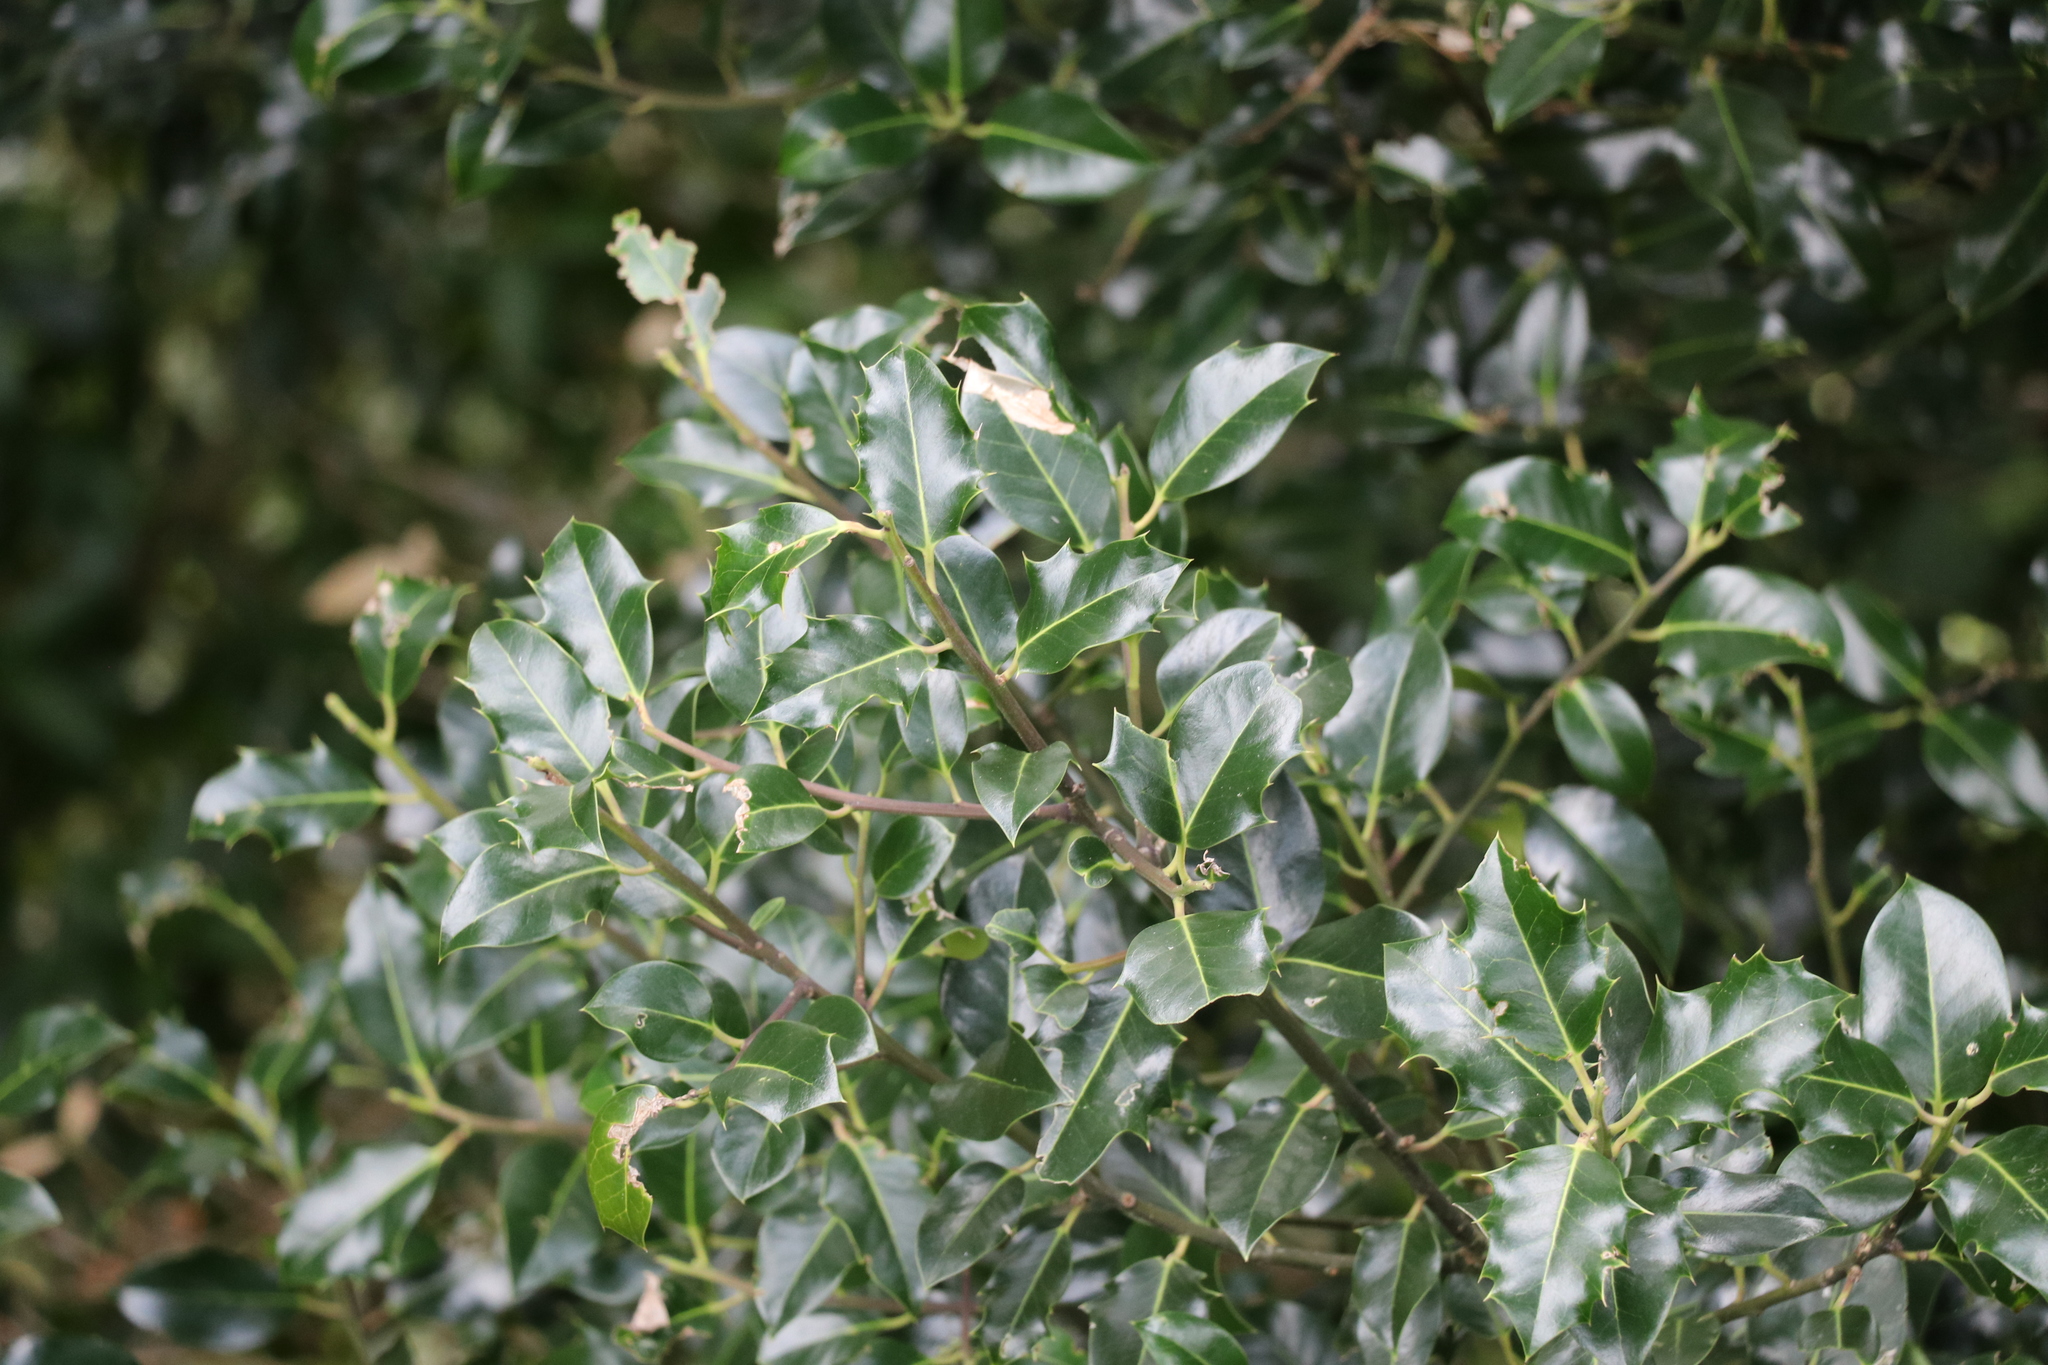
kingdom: Plantae
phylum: Tracheophyta
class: Magnoliopsida
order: Aquifoliales
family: Aquifoliaceae
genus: Ilex
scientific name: Ilex aquifolium
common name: English holly
